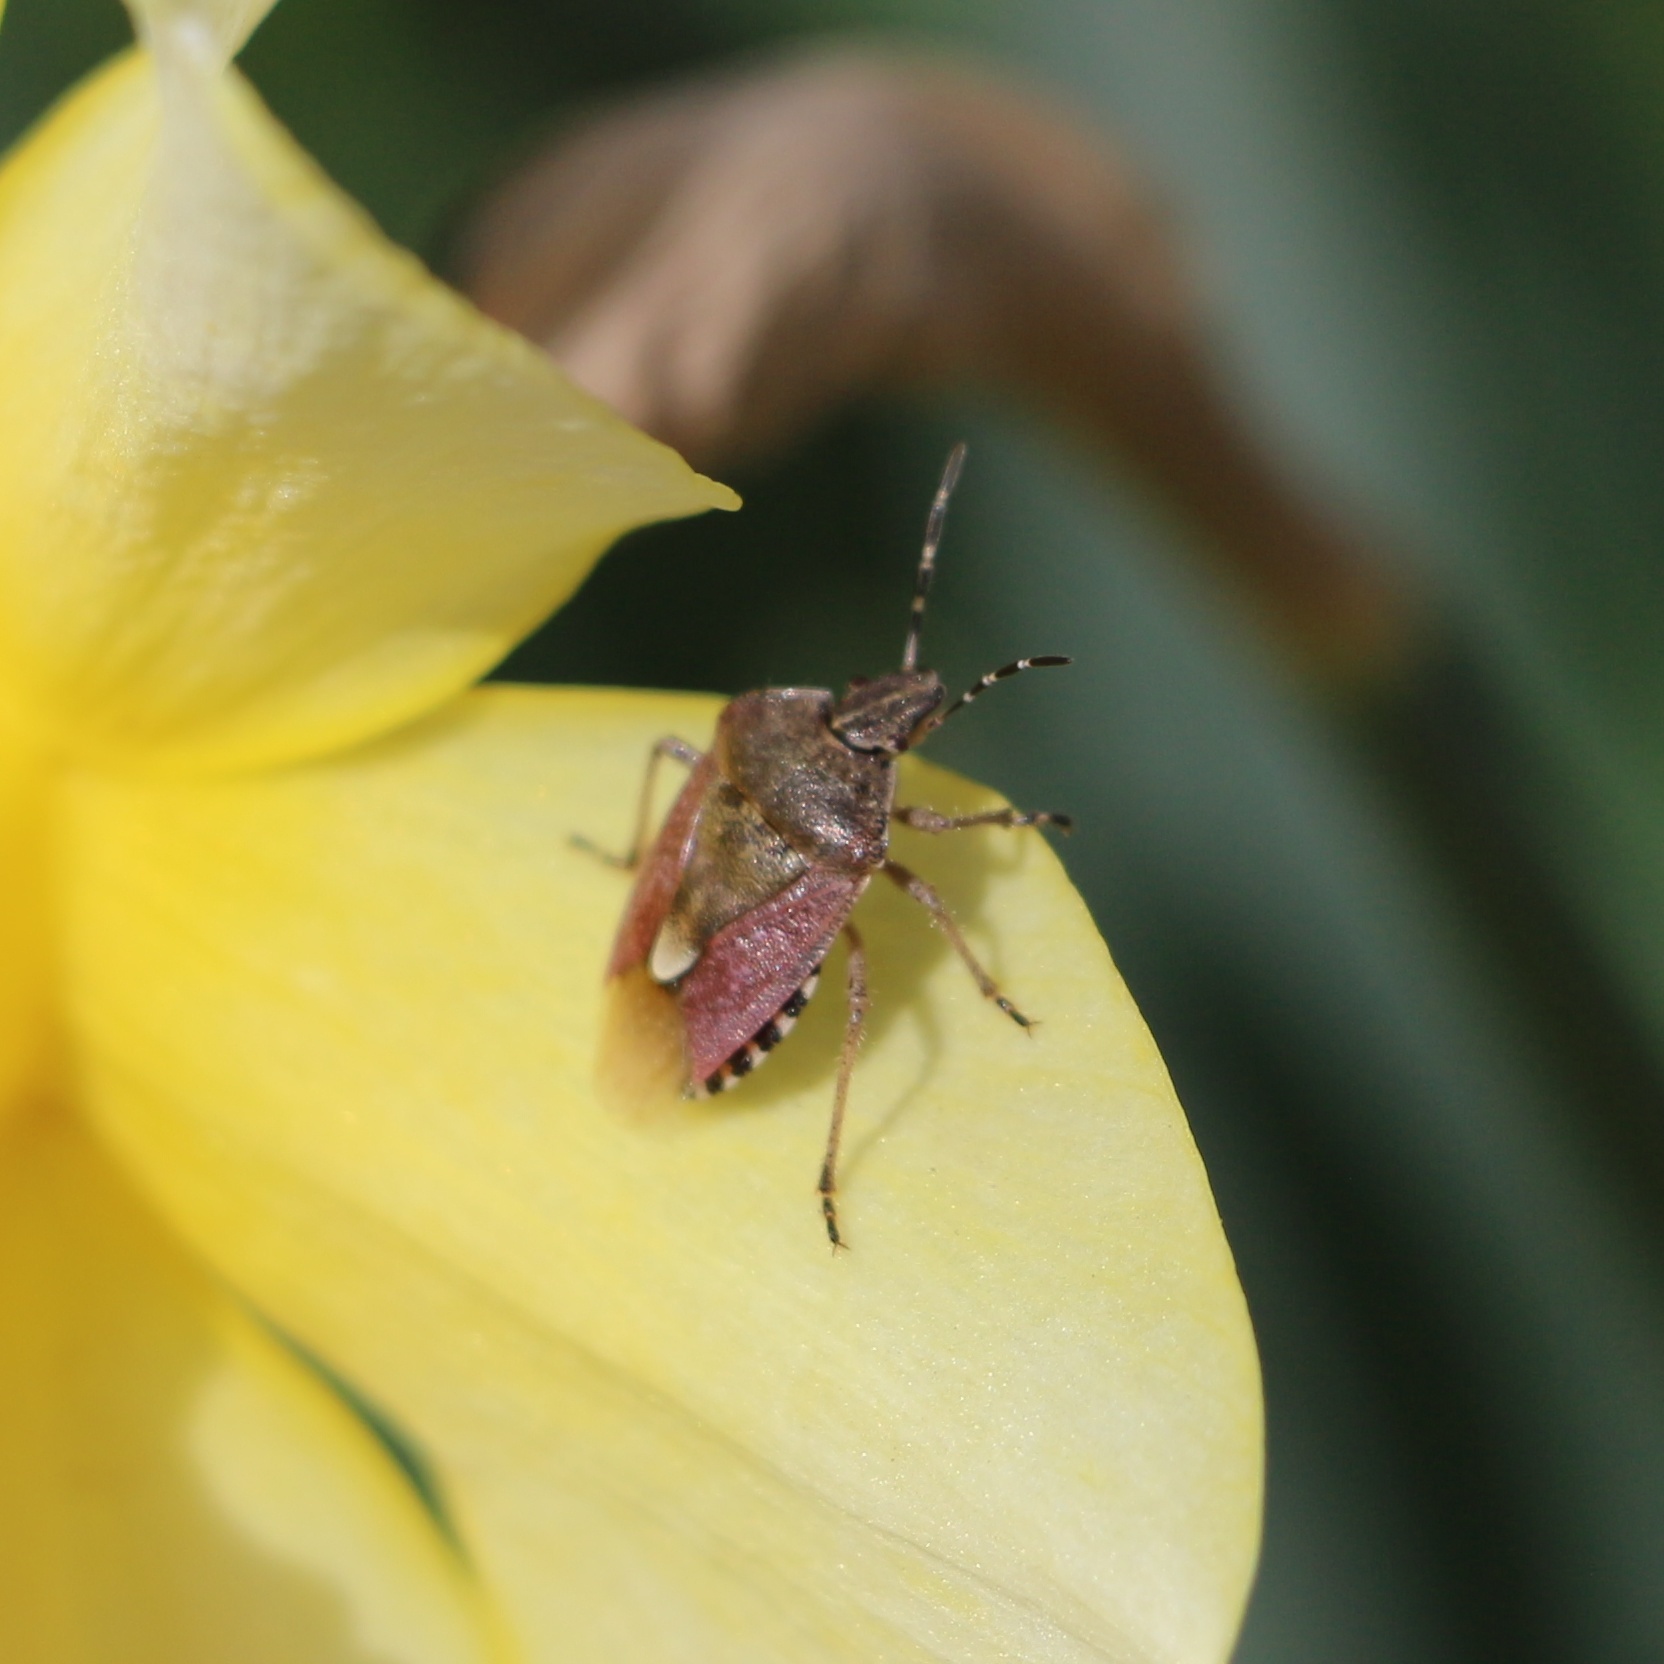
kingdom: Animalia
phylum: Arthropoda
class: Insecta
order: Hemiptera
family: Pentatomidae
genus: Dolycoris
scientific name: Dolycoris baccarum
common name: Sloe bug
